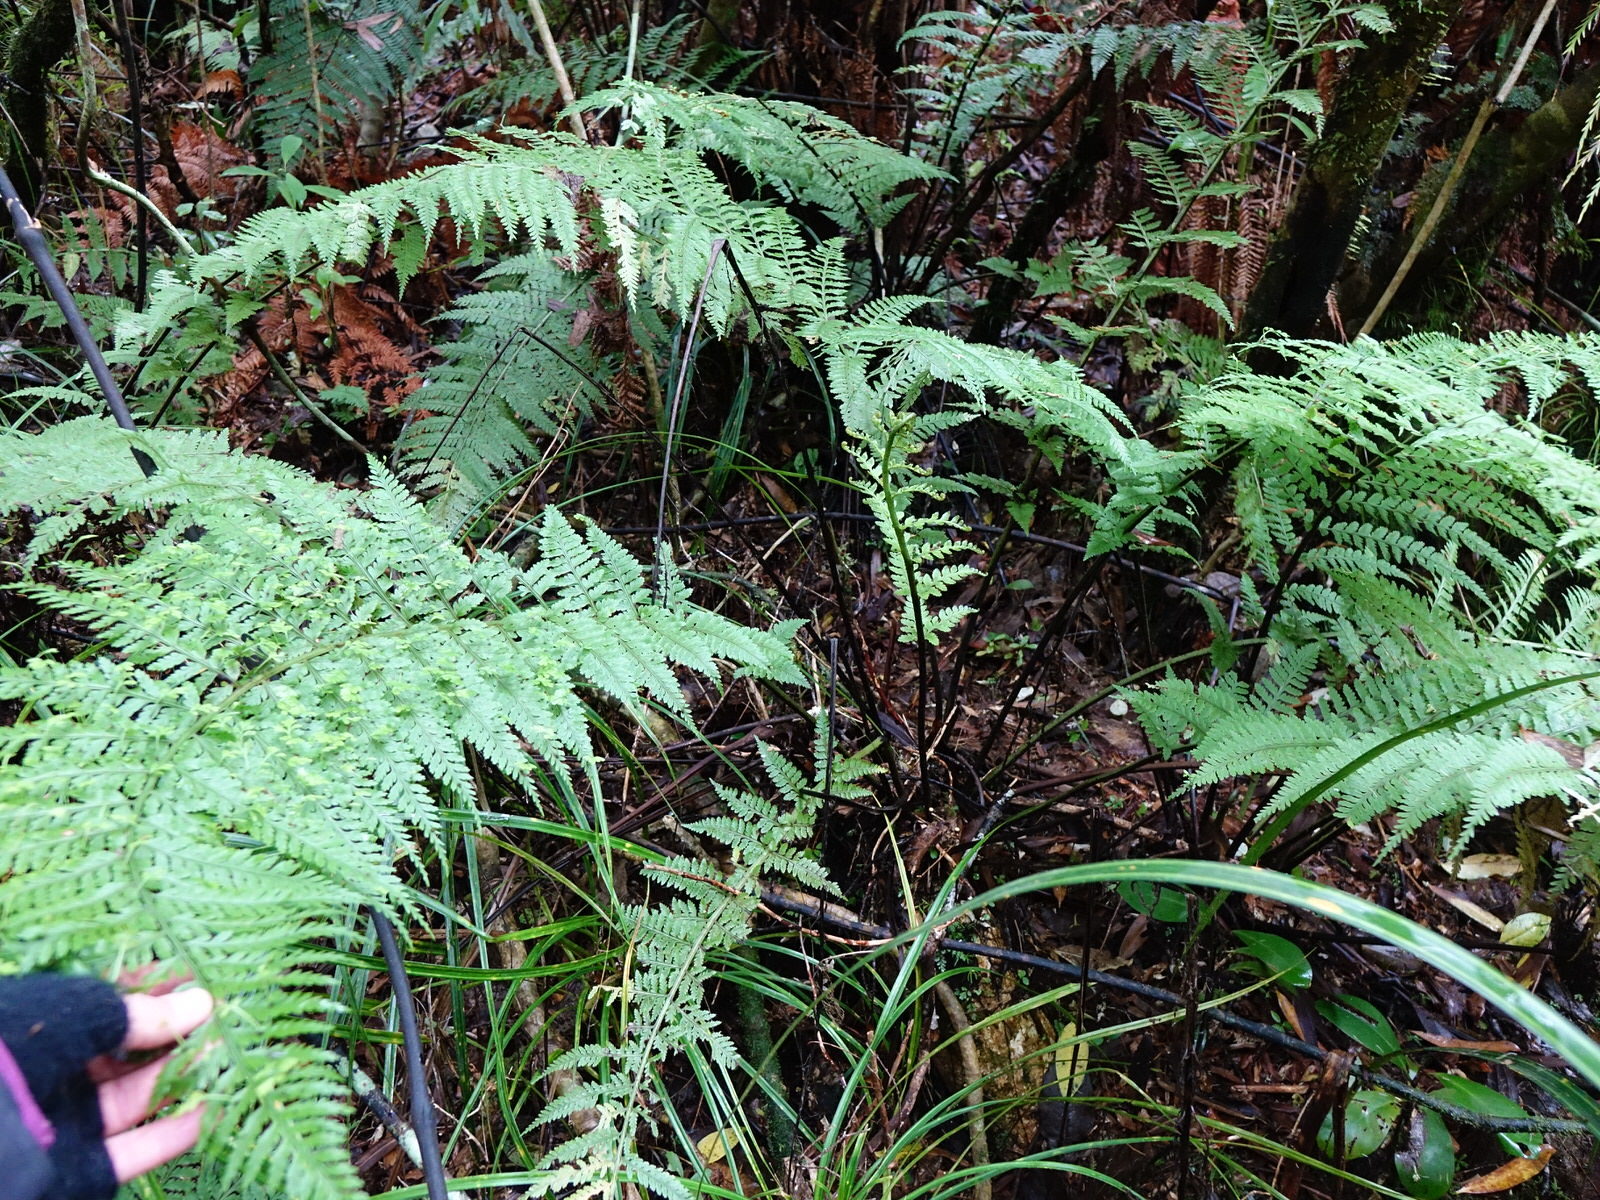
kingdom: Plantae
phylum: Tracheophyta
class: Polypodiopsida
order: Polypodiales
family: Aspleniaceae
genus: Asplenium
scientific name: Asplenium bulbiferum
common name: Mother fern
